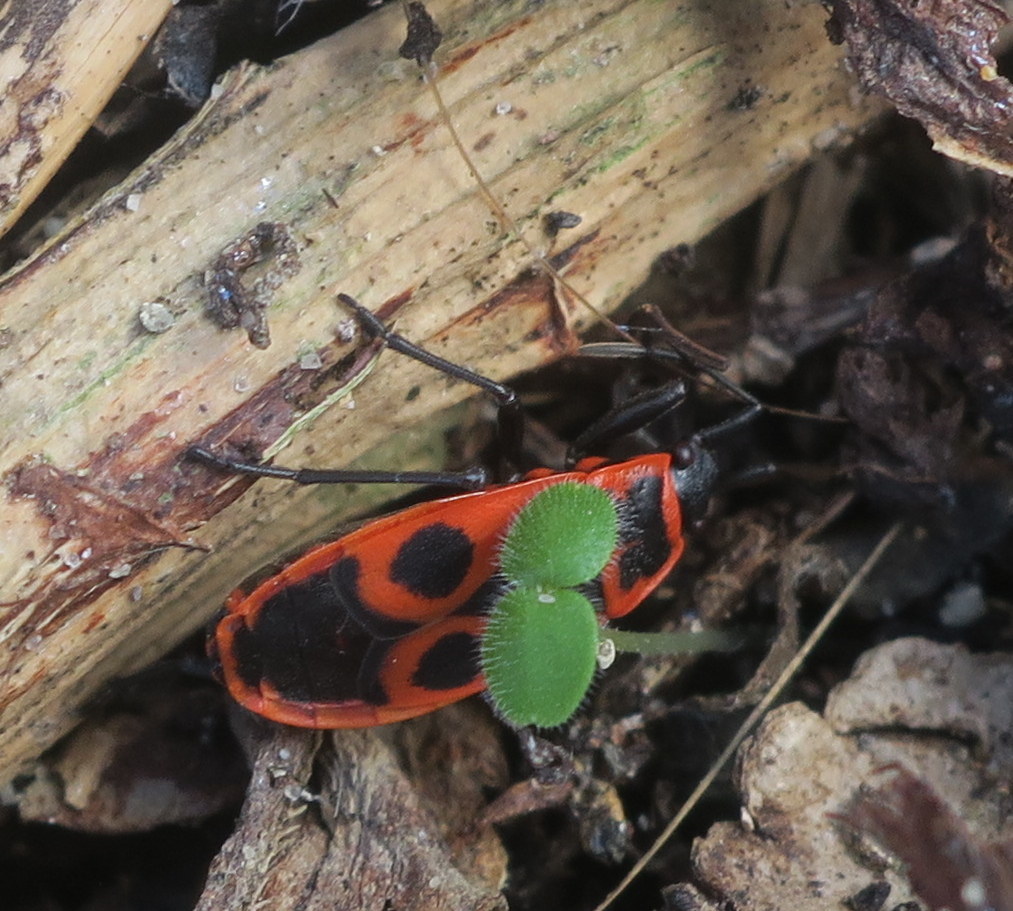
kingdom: Animalia
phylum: Arthropoda
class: Insecta
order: Hemiptera
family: Pyrrhocoridae
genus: Pyrrhocoris
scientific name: Pyrrhocoris apterus
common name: Firebug
